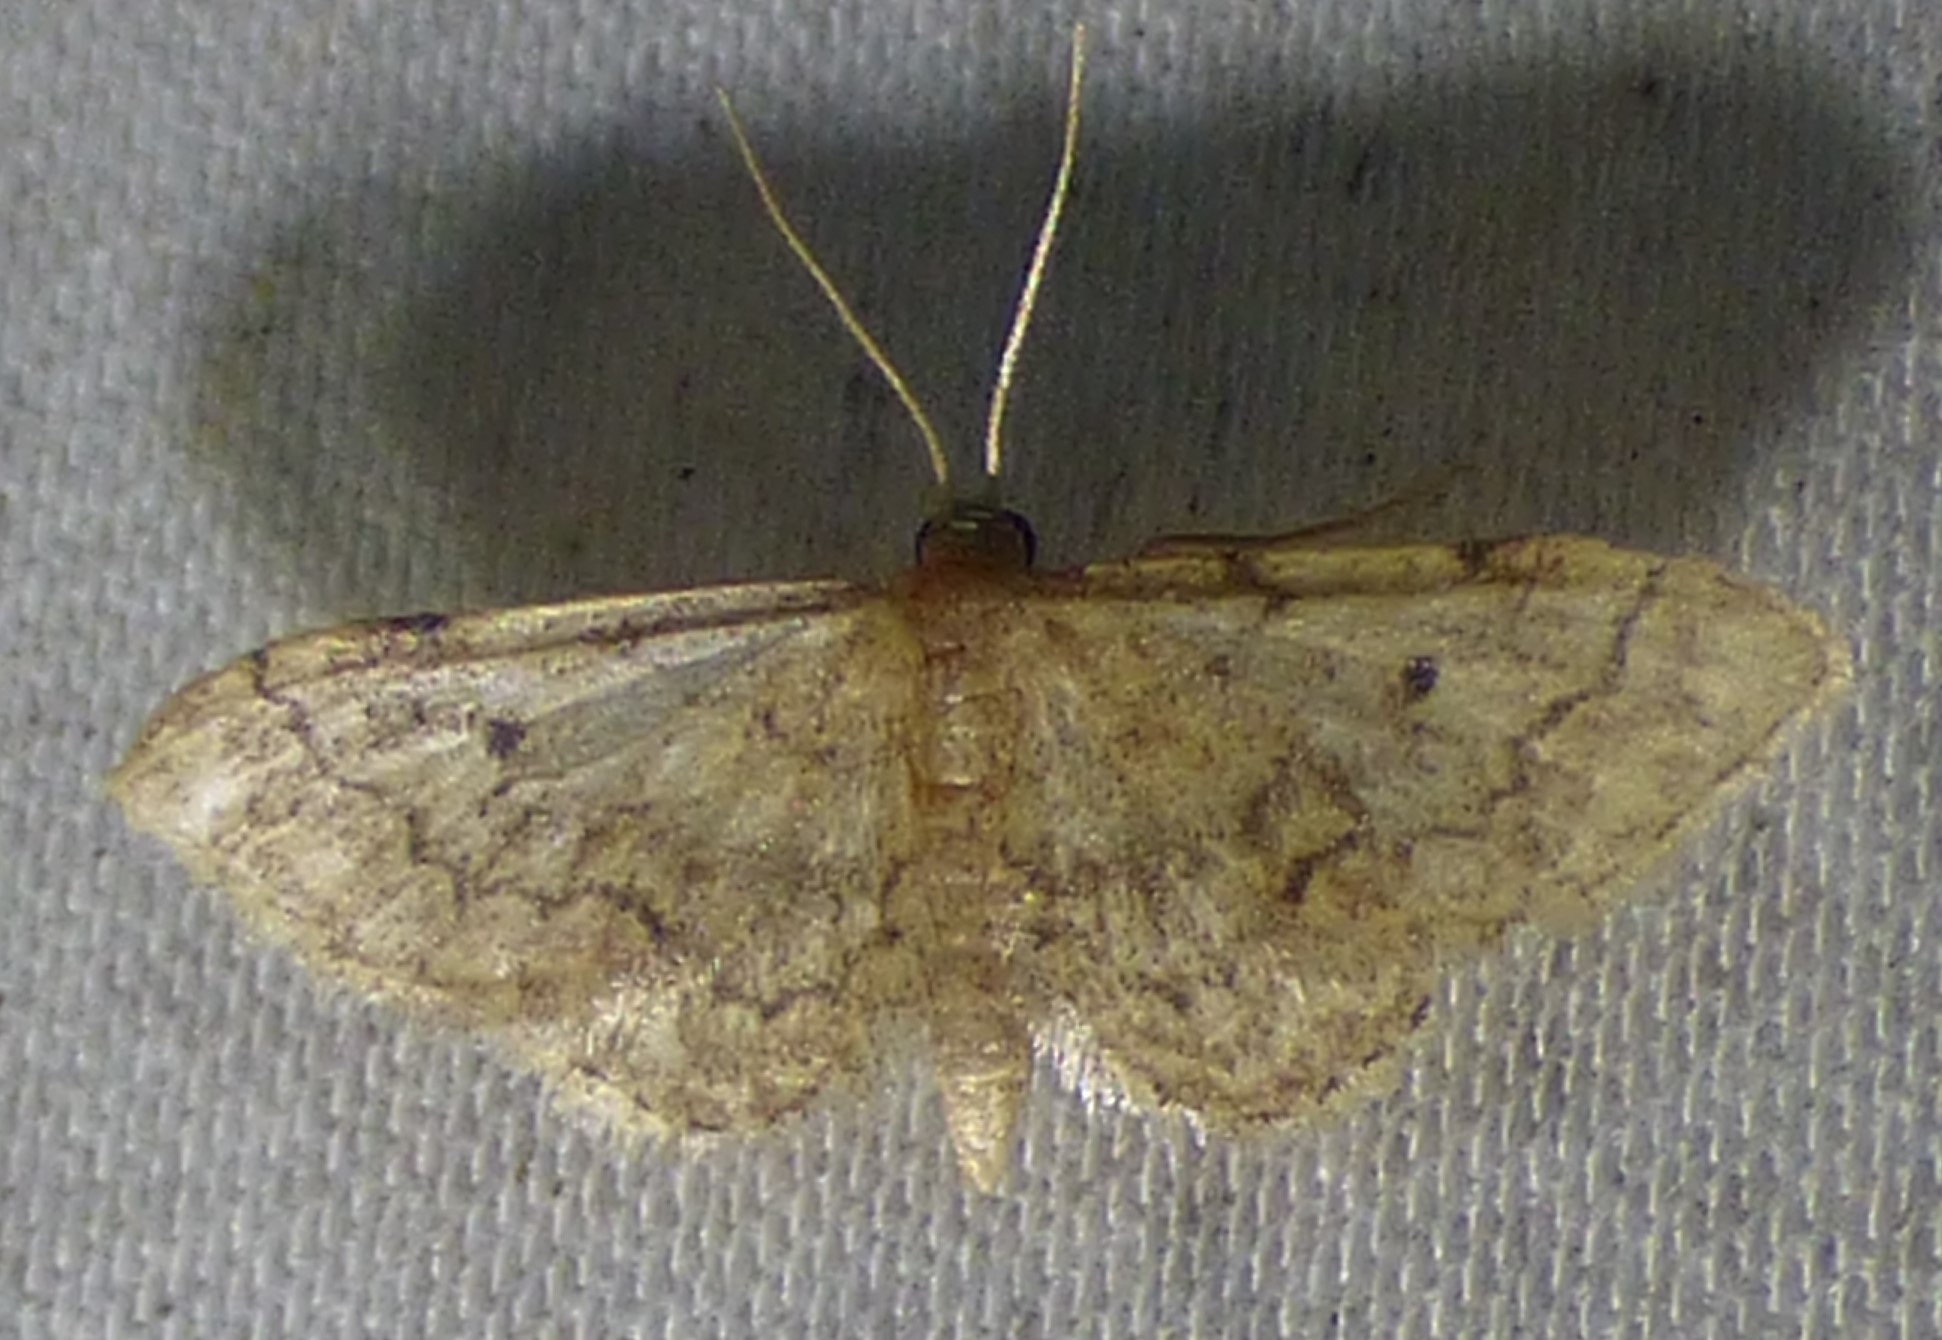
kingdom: Animalia
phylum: Arthropoda
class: Insecta
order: Lepidoptera
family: Geometridae
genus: Idaea
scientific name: Idaea demissaria
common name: Red-bordered wave
